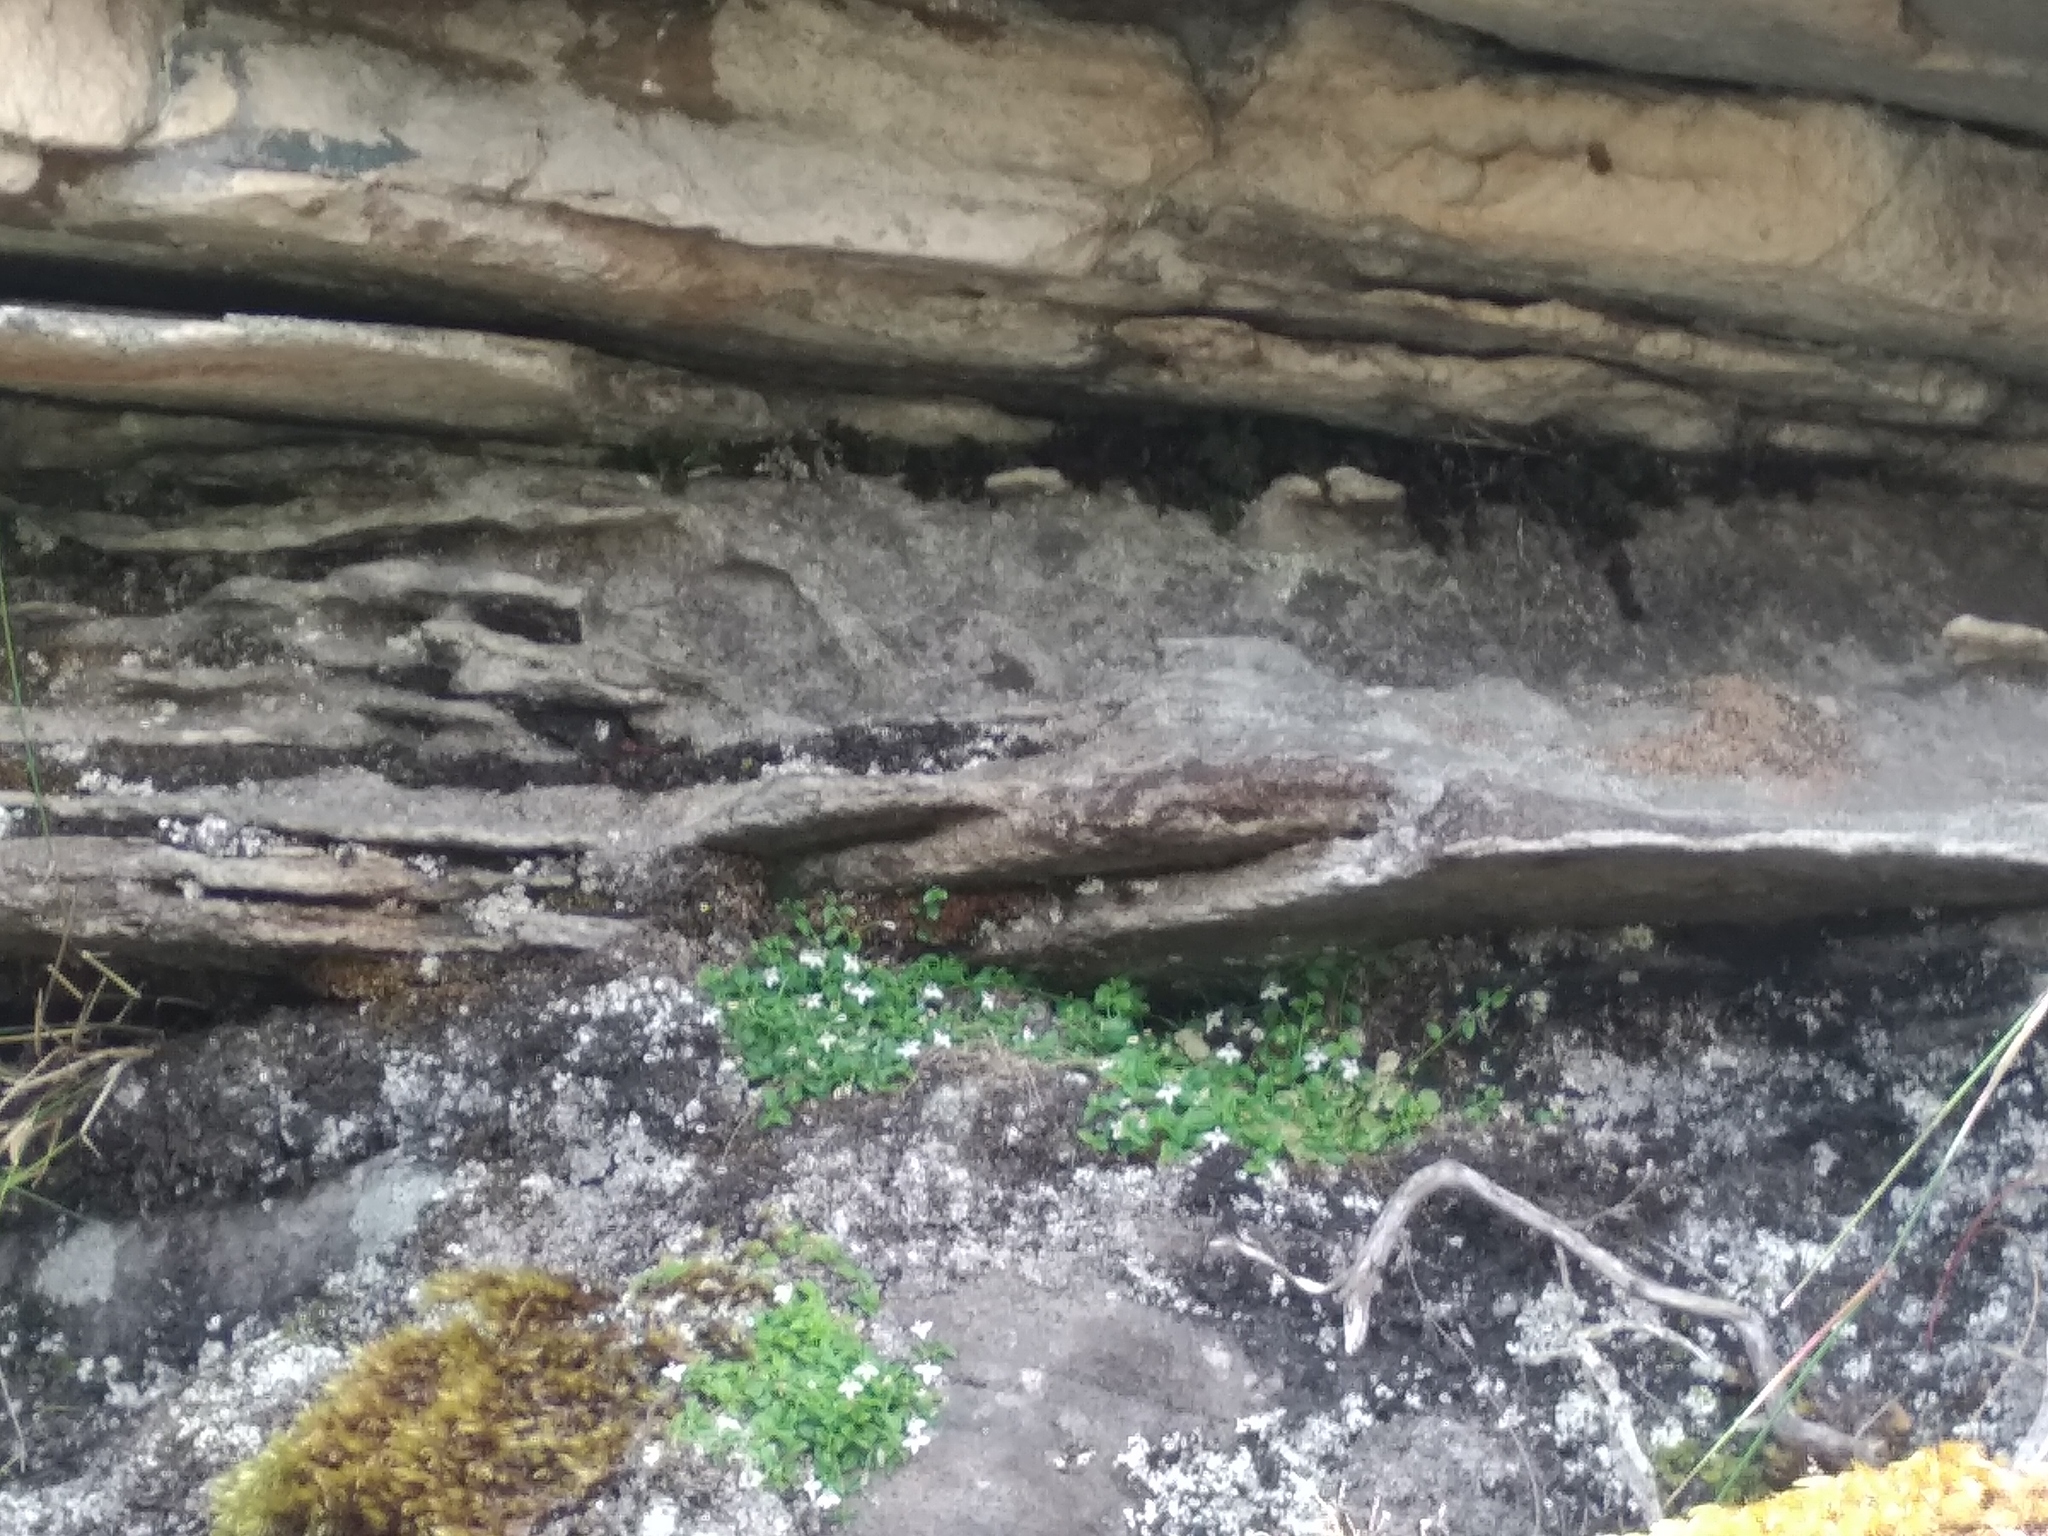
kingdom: Plantae
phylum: Tracheophyta
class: Magnoliopsida
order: Asterales
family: Campanulaceae
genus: Unigenes
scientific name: Unigenes humifusa
